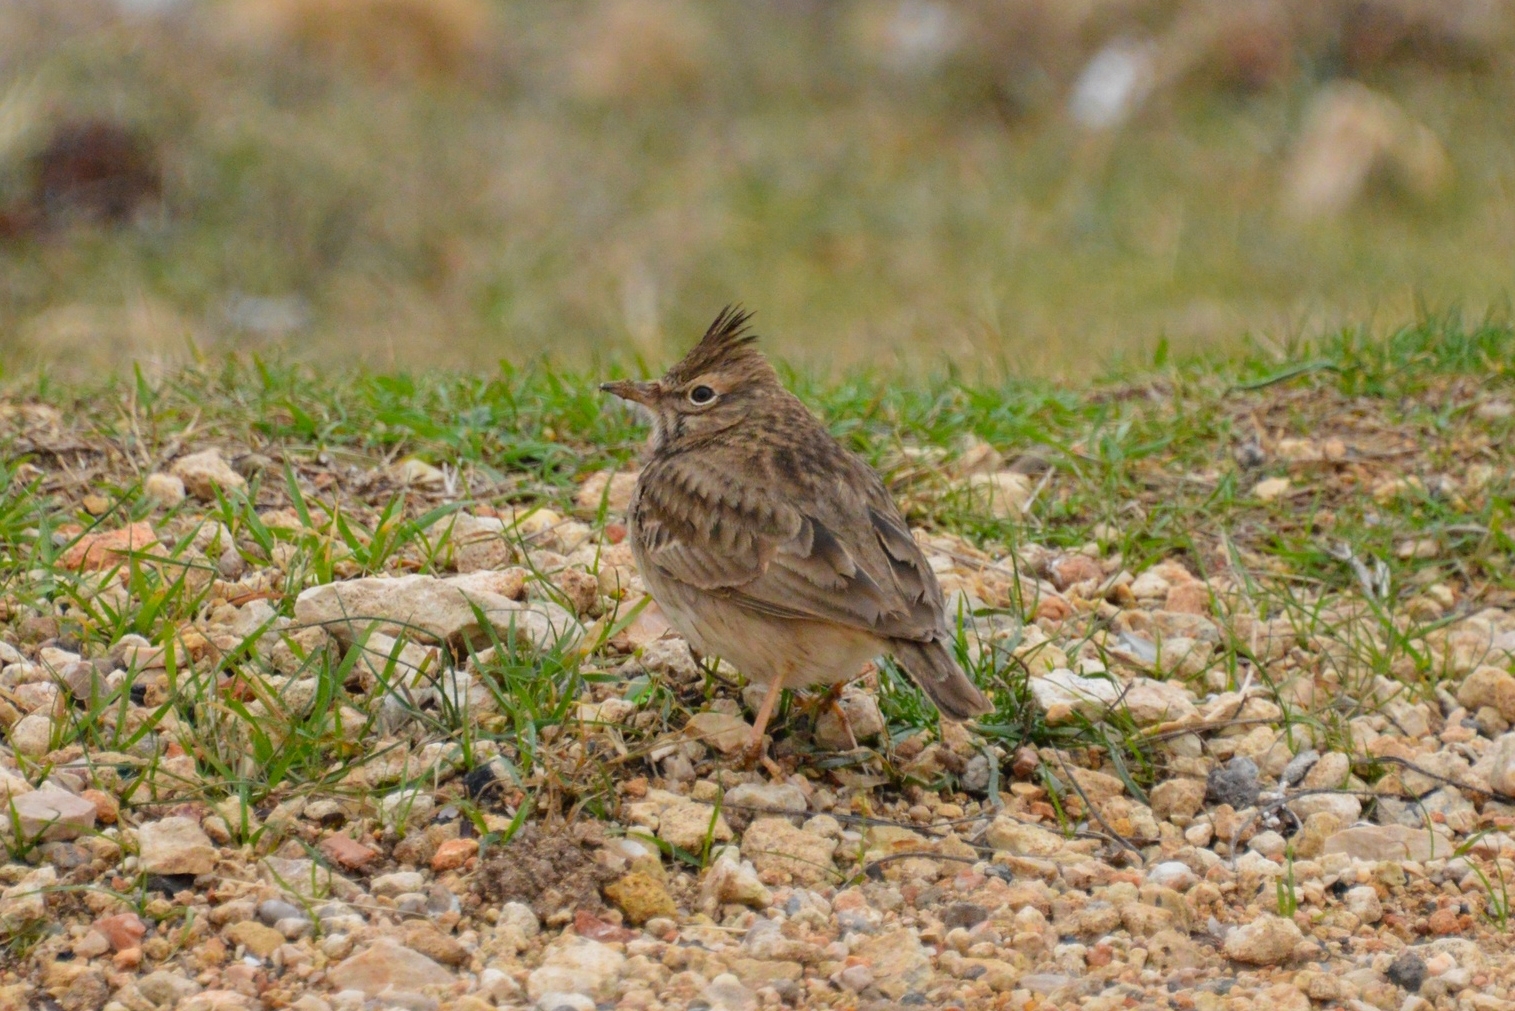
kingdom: Animalia
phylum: Chordata
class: Aves
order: Passeriformes
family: Alaudidae
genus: Galerida
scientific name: Galerida cristata
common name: Crested lark
